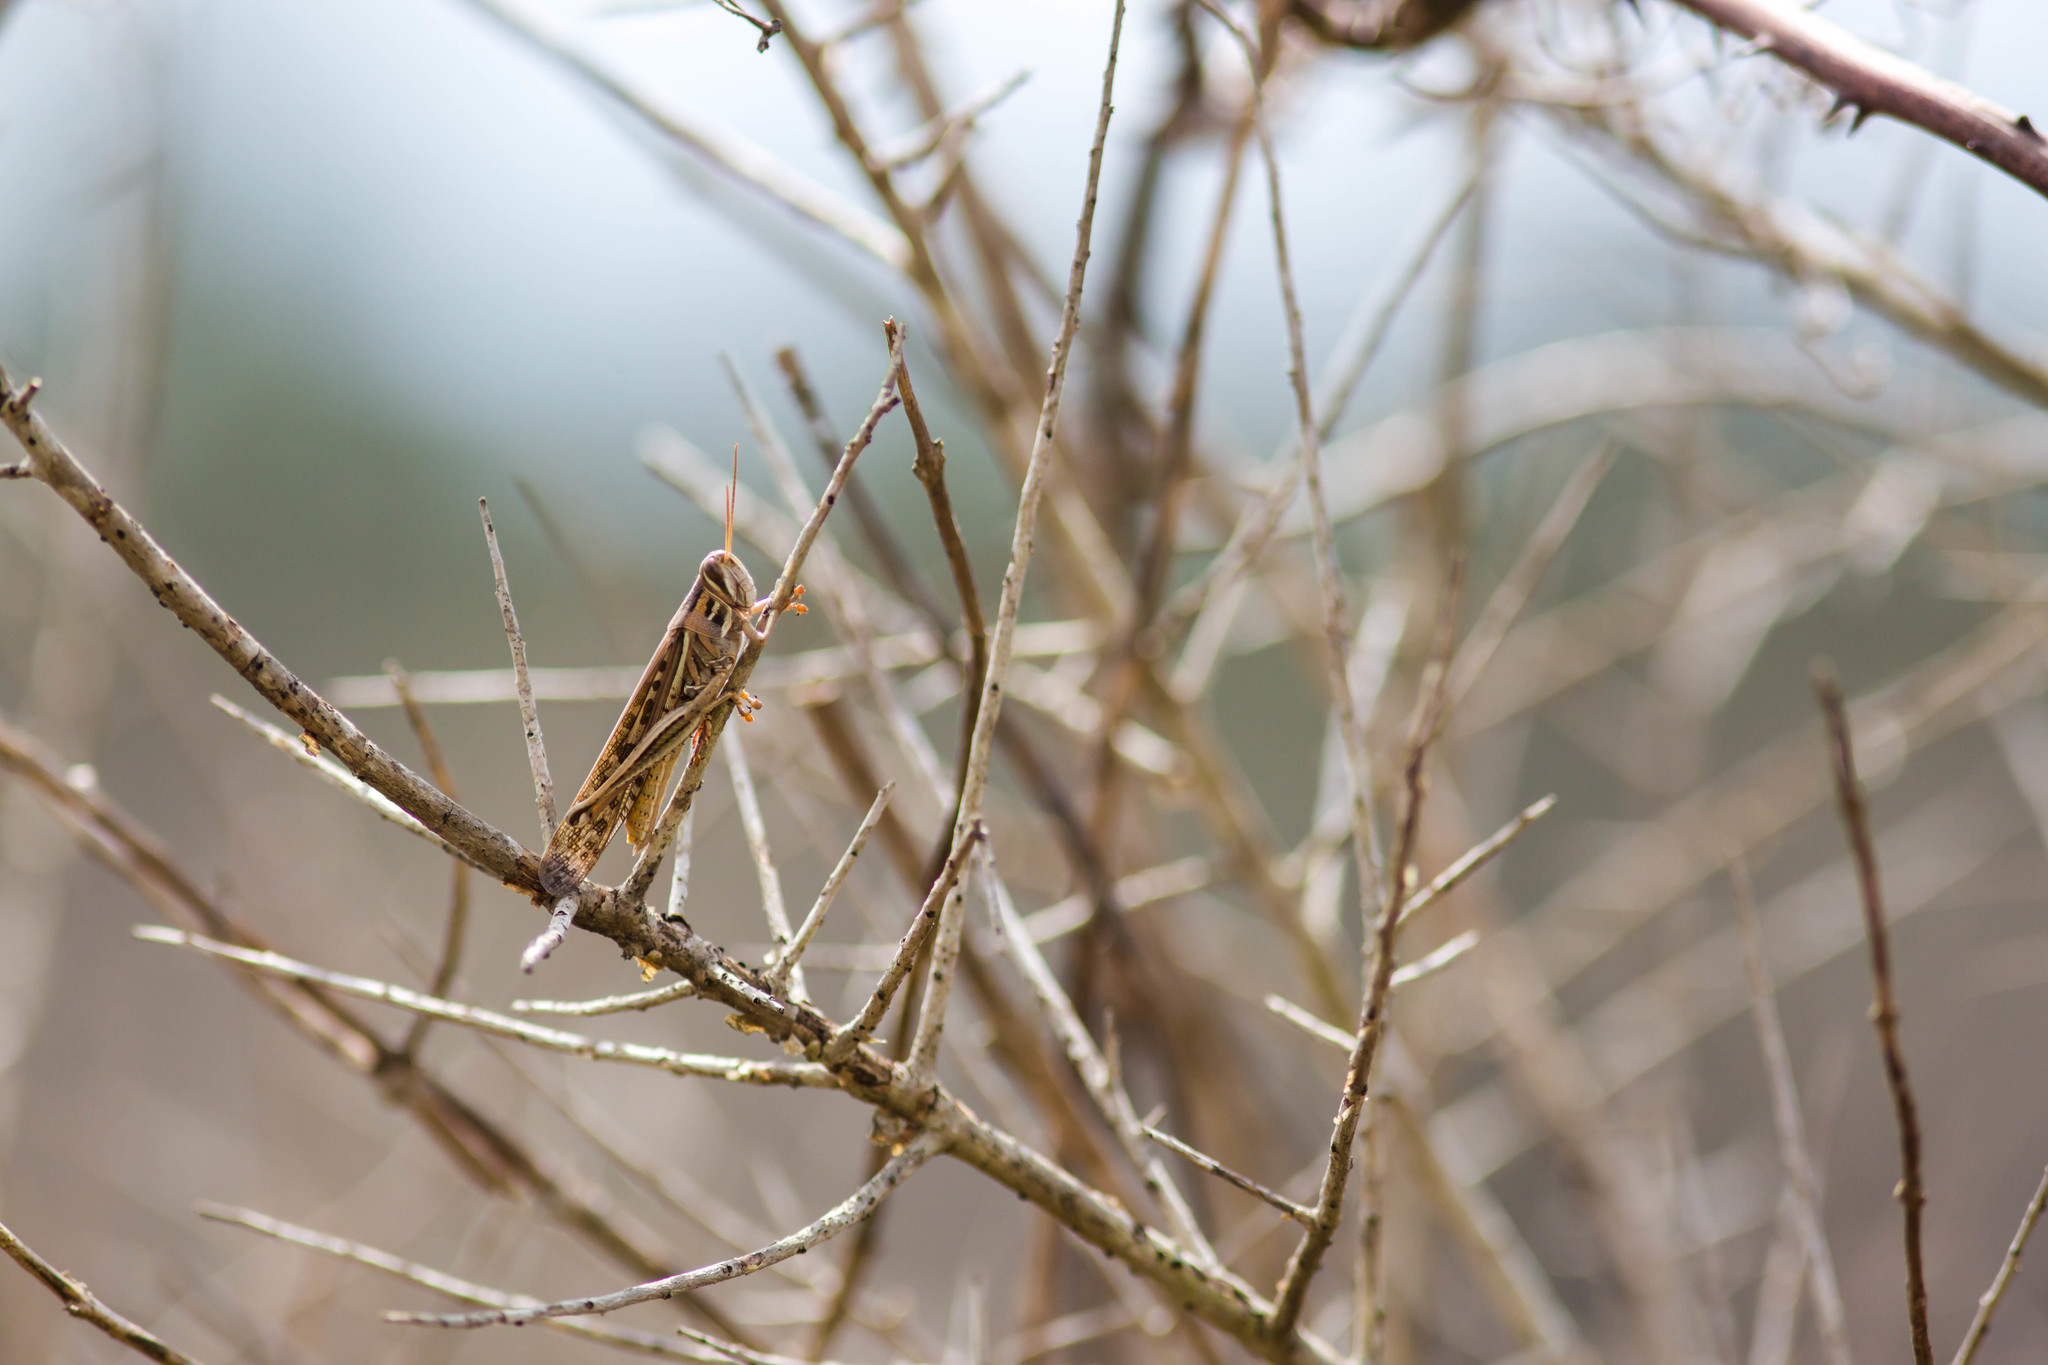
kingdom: Animalia
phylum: Arthropoda
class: Insecta
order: Orthoptera
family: Acrididae
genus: Schistocerca
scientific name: Schistocerca americana
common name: American bird locust
